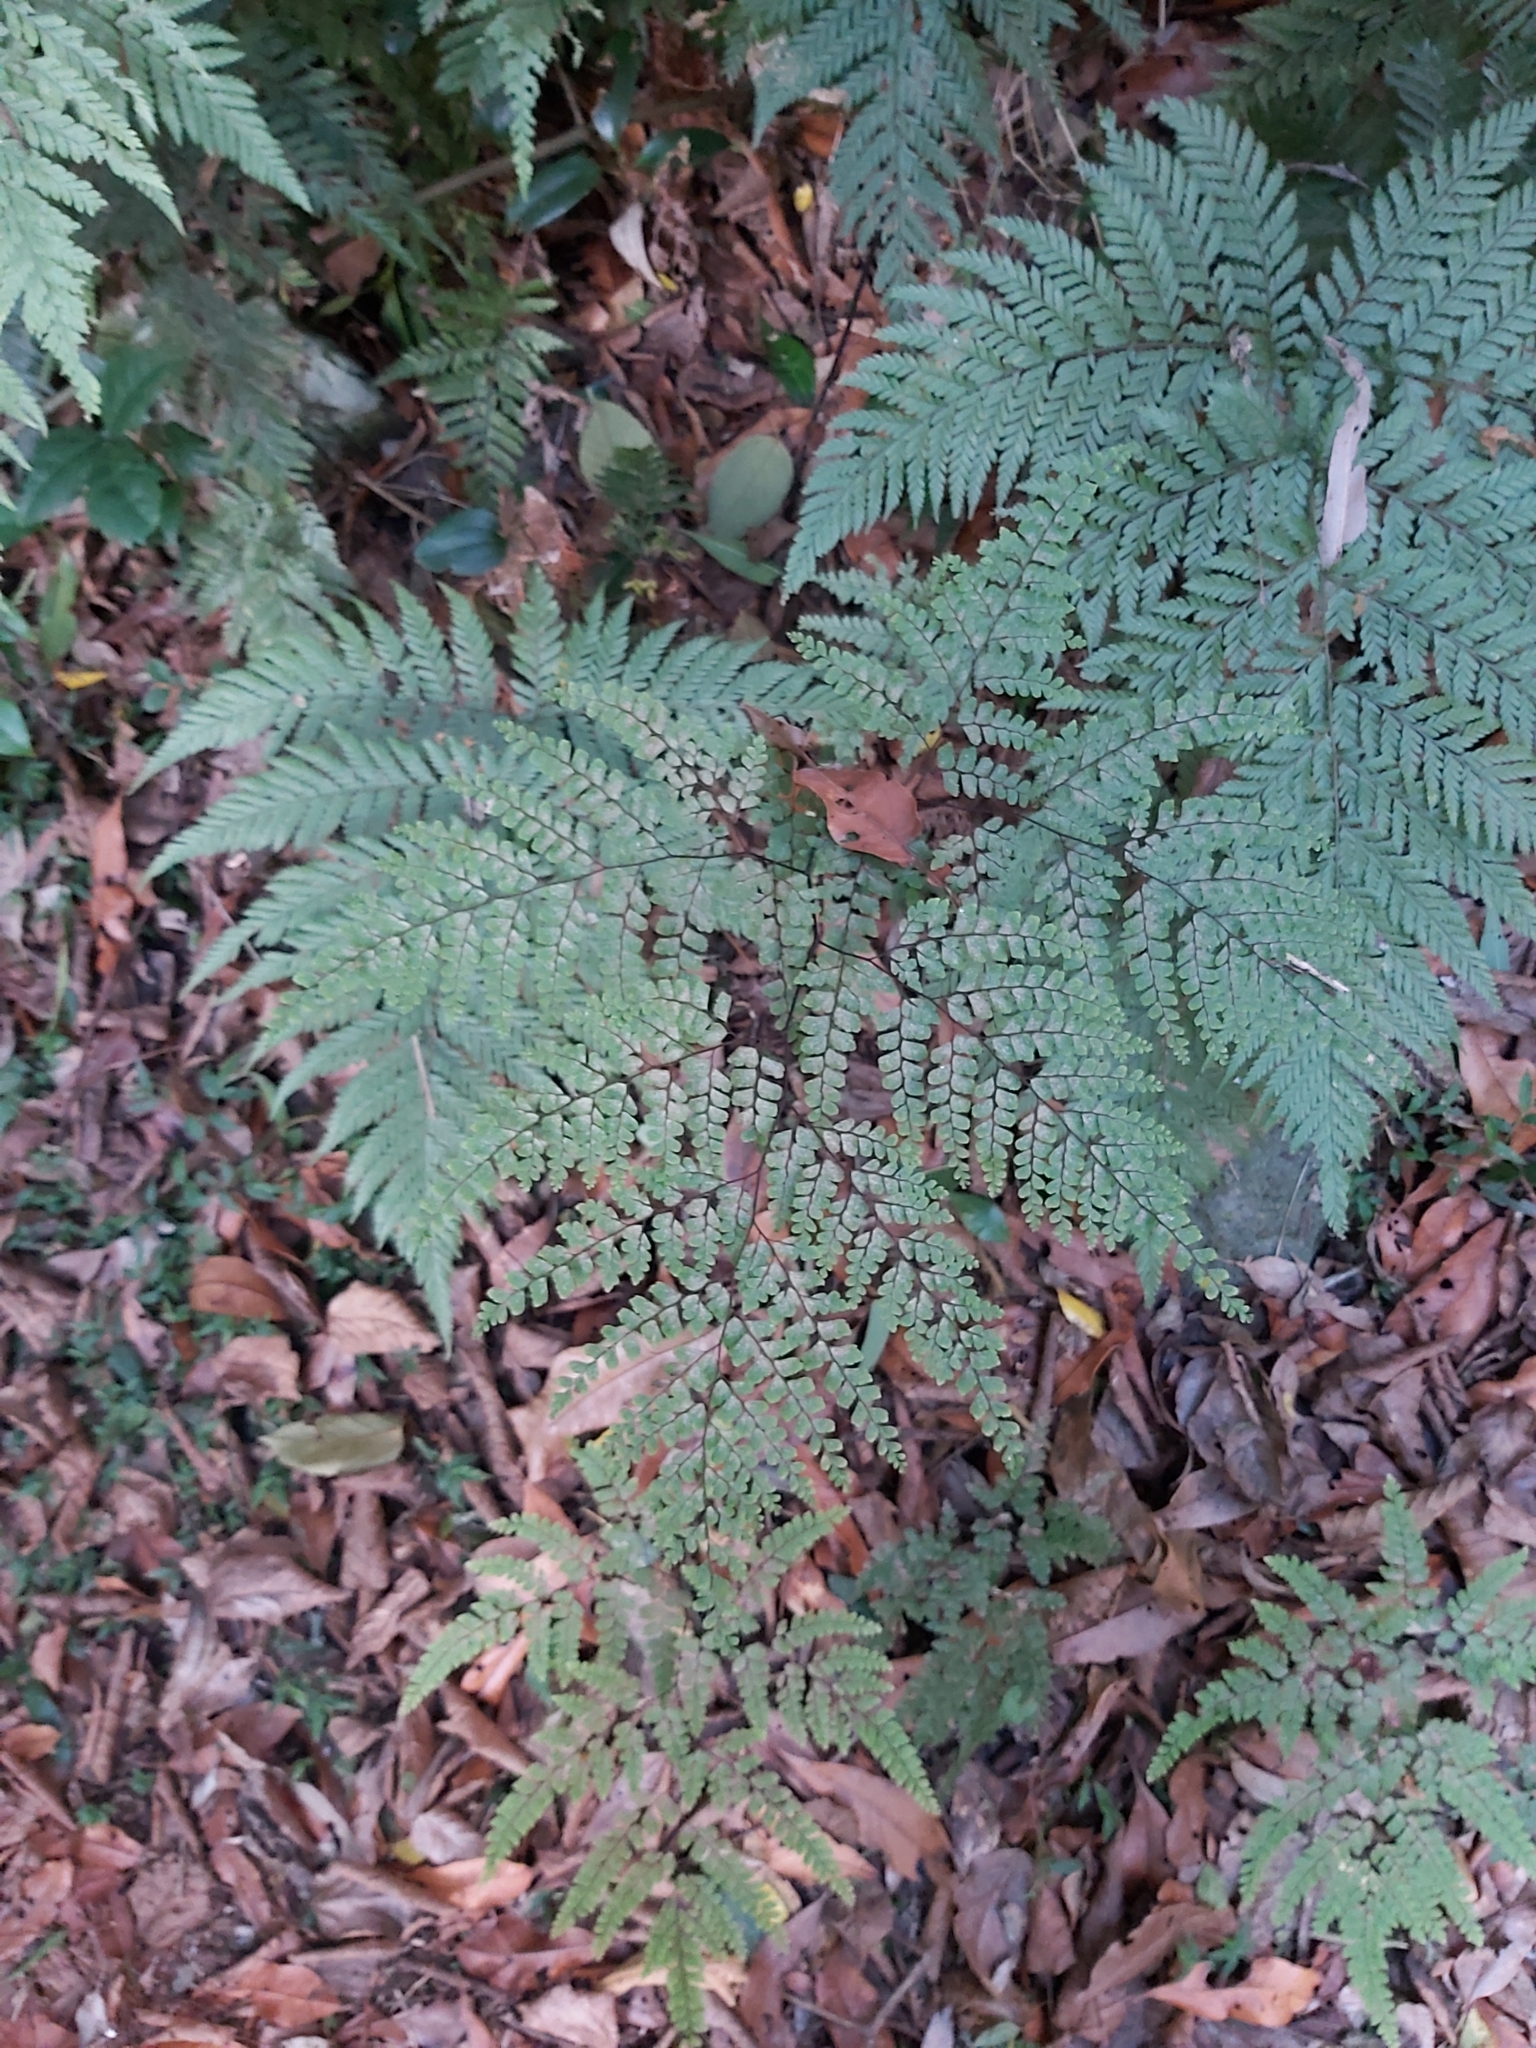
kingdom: Plantae
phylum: Tracheophyta
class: Polypodiopsida
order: Polypodiales
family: Pteridaceae
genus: Adiantum
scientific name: Adiantum formosum
